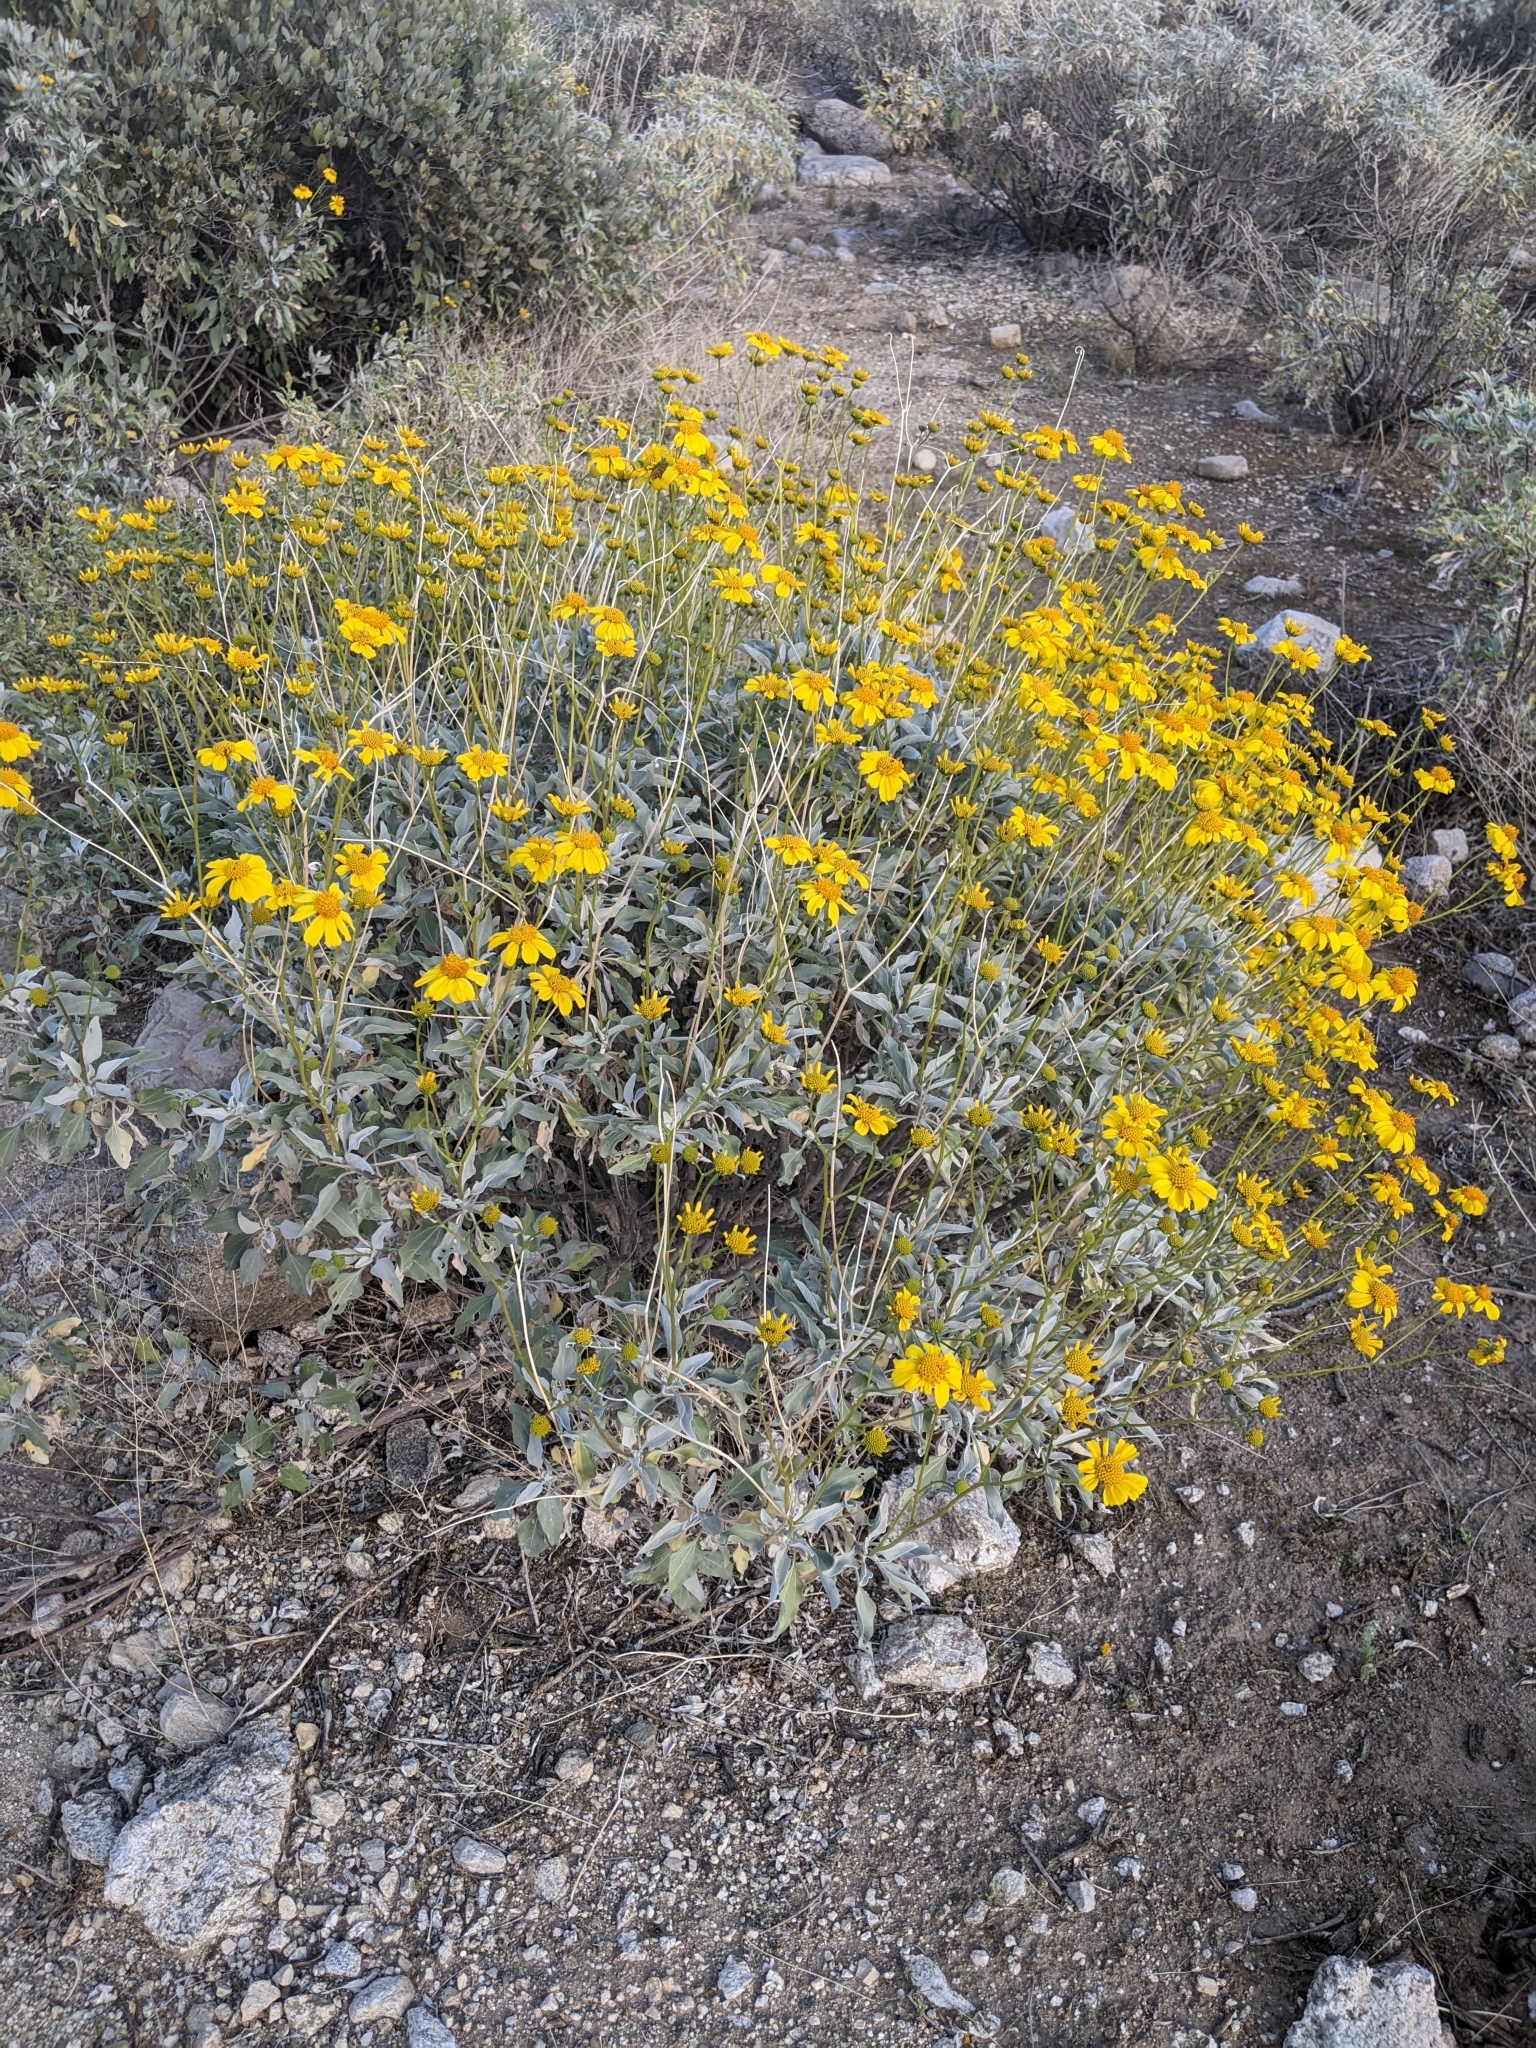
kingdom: Plantae
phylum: Tracheophyta
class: Magnoliopsida
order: Asterales
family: Asteraceae
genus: Encelia
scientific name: Encelia farinosa
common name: Brittlebush
